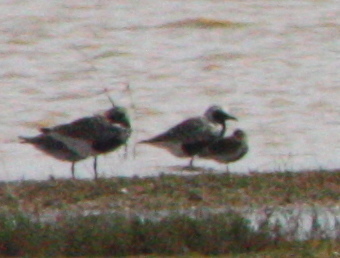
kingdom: Animalia
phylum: Chordata
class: Aves
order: Charadriiformes
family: Charadriidae
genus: Pluvialis
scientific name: Pluvialis squatarola
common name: Grey plover
